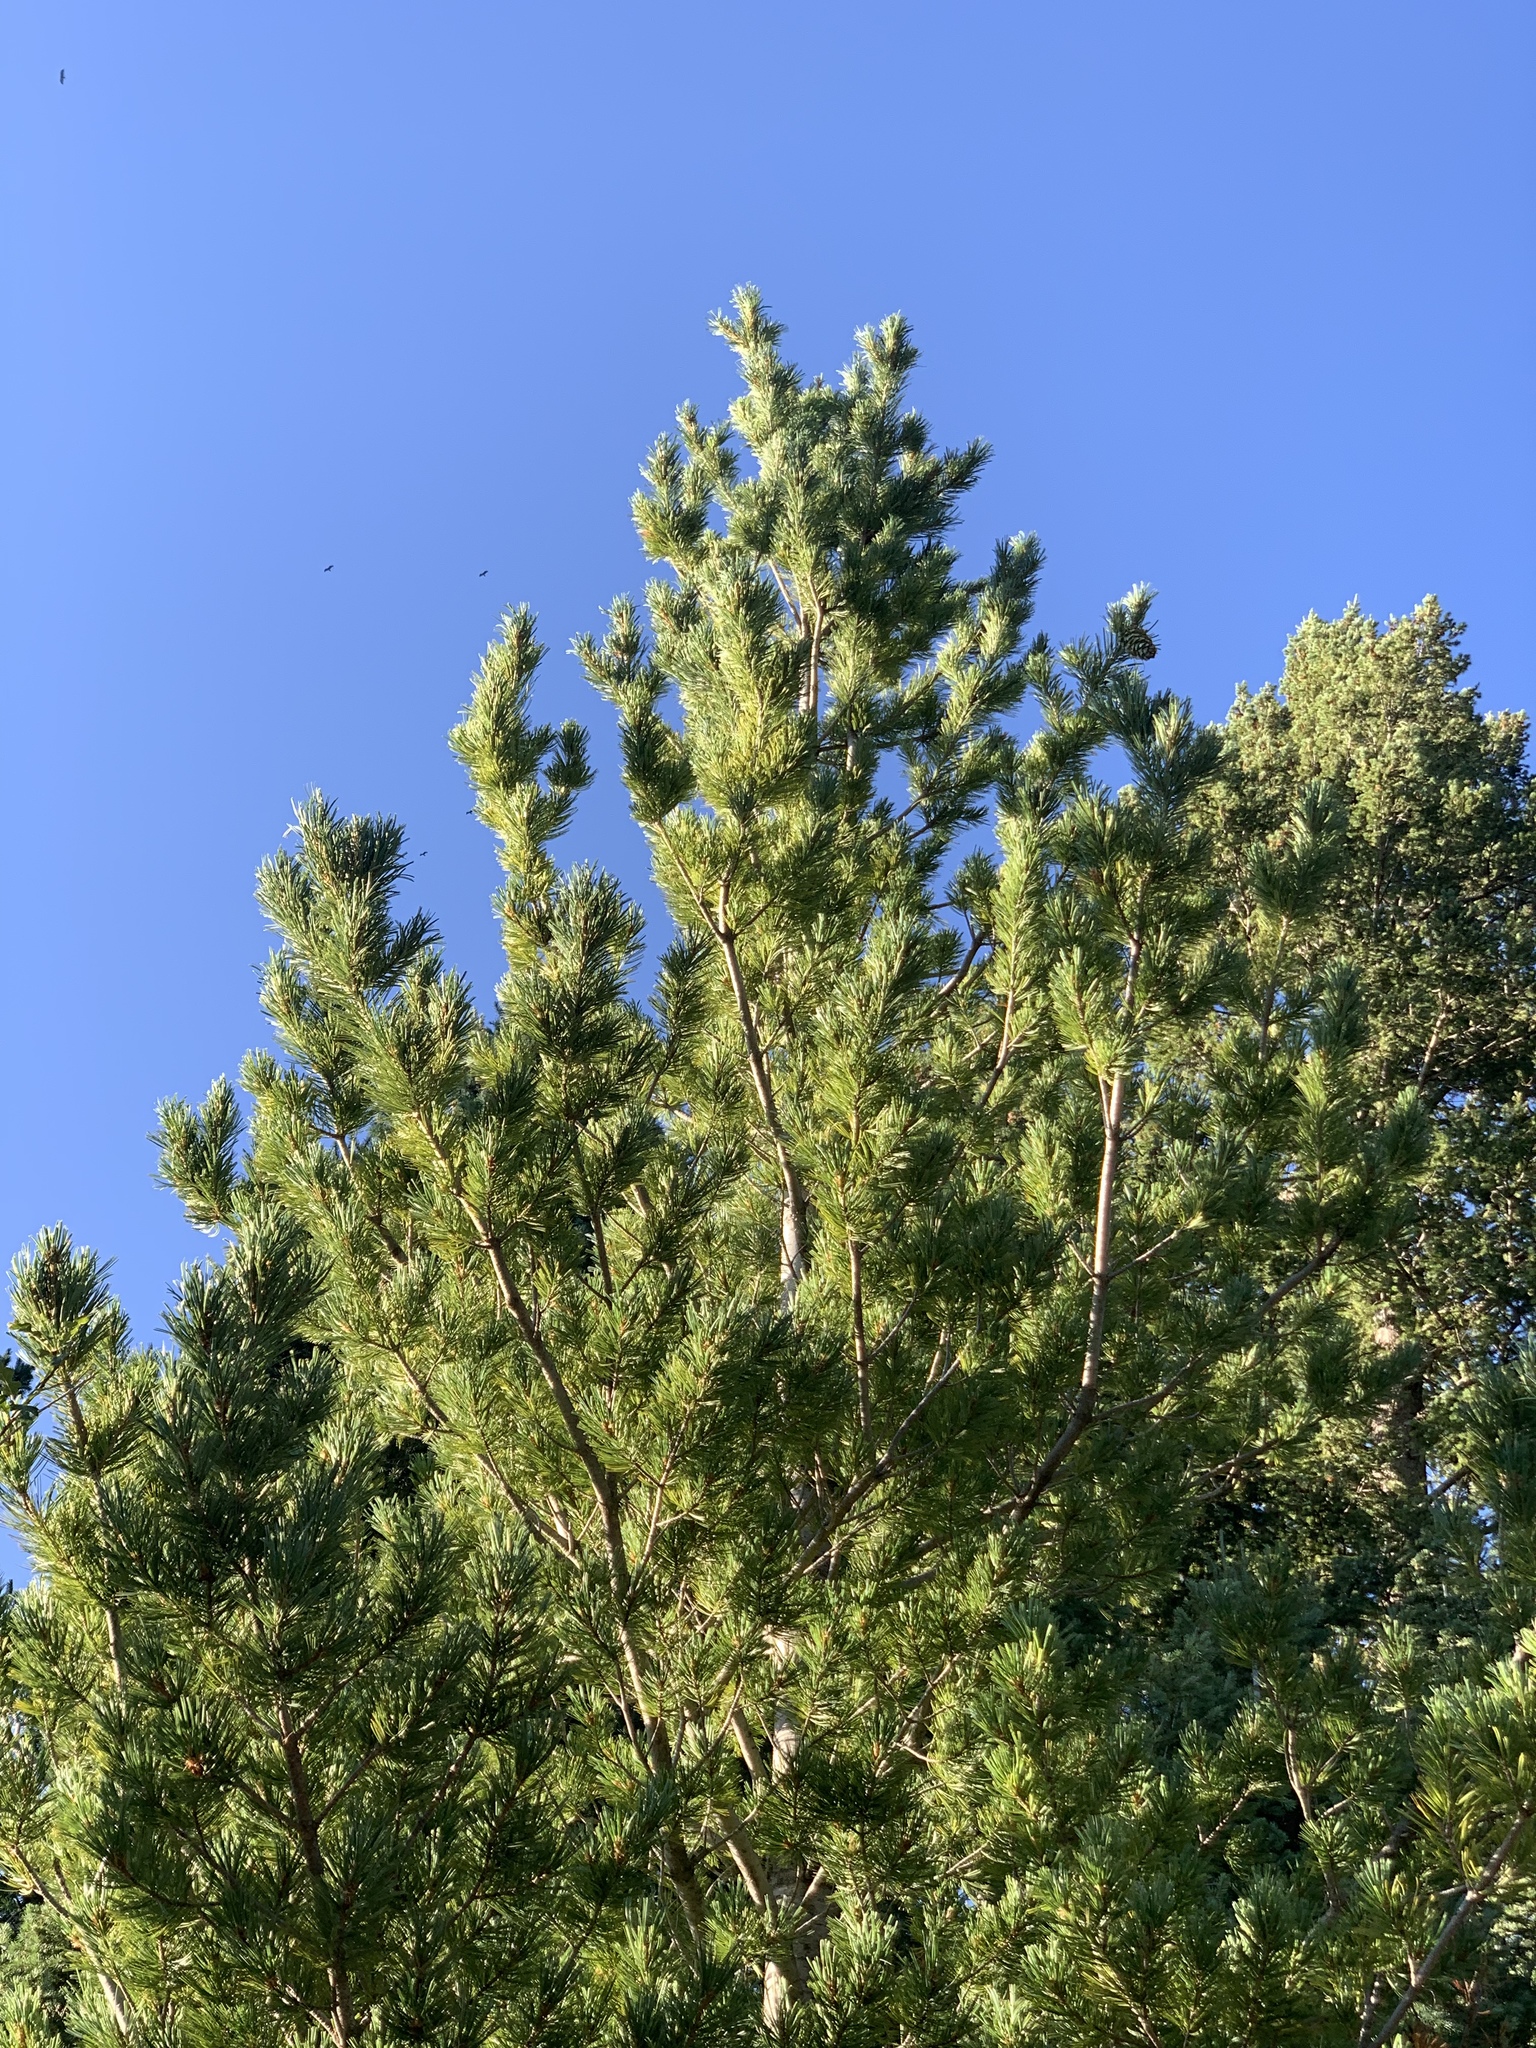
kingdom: Plantae
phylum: Tracheophyta
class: Pinopsida
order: Pinales
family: Pinaceae
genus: Pinus
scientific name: Pinus strobiformis
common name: Southwestern white pine
